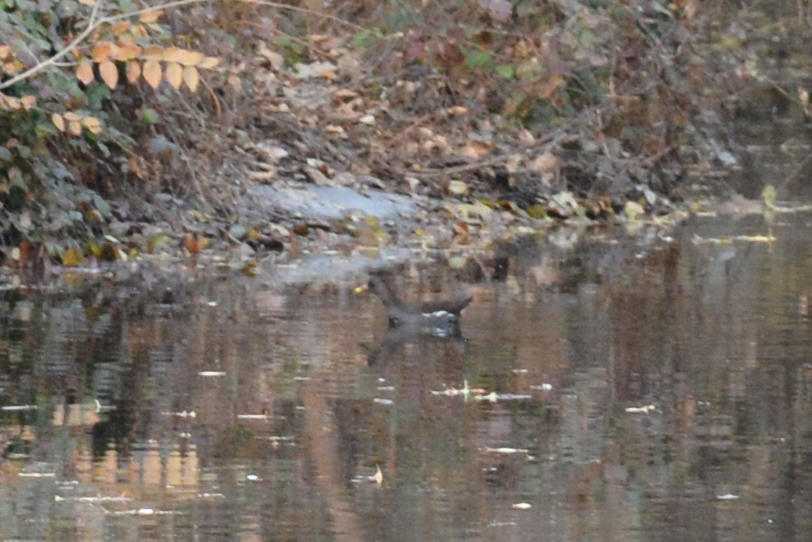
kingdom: Animalia
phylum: Chordata
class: Aves
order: Gruiformes
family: Rallidae
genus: Gallinula
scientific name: Gallinula chloropus
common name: Common moorhen
